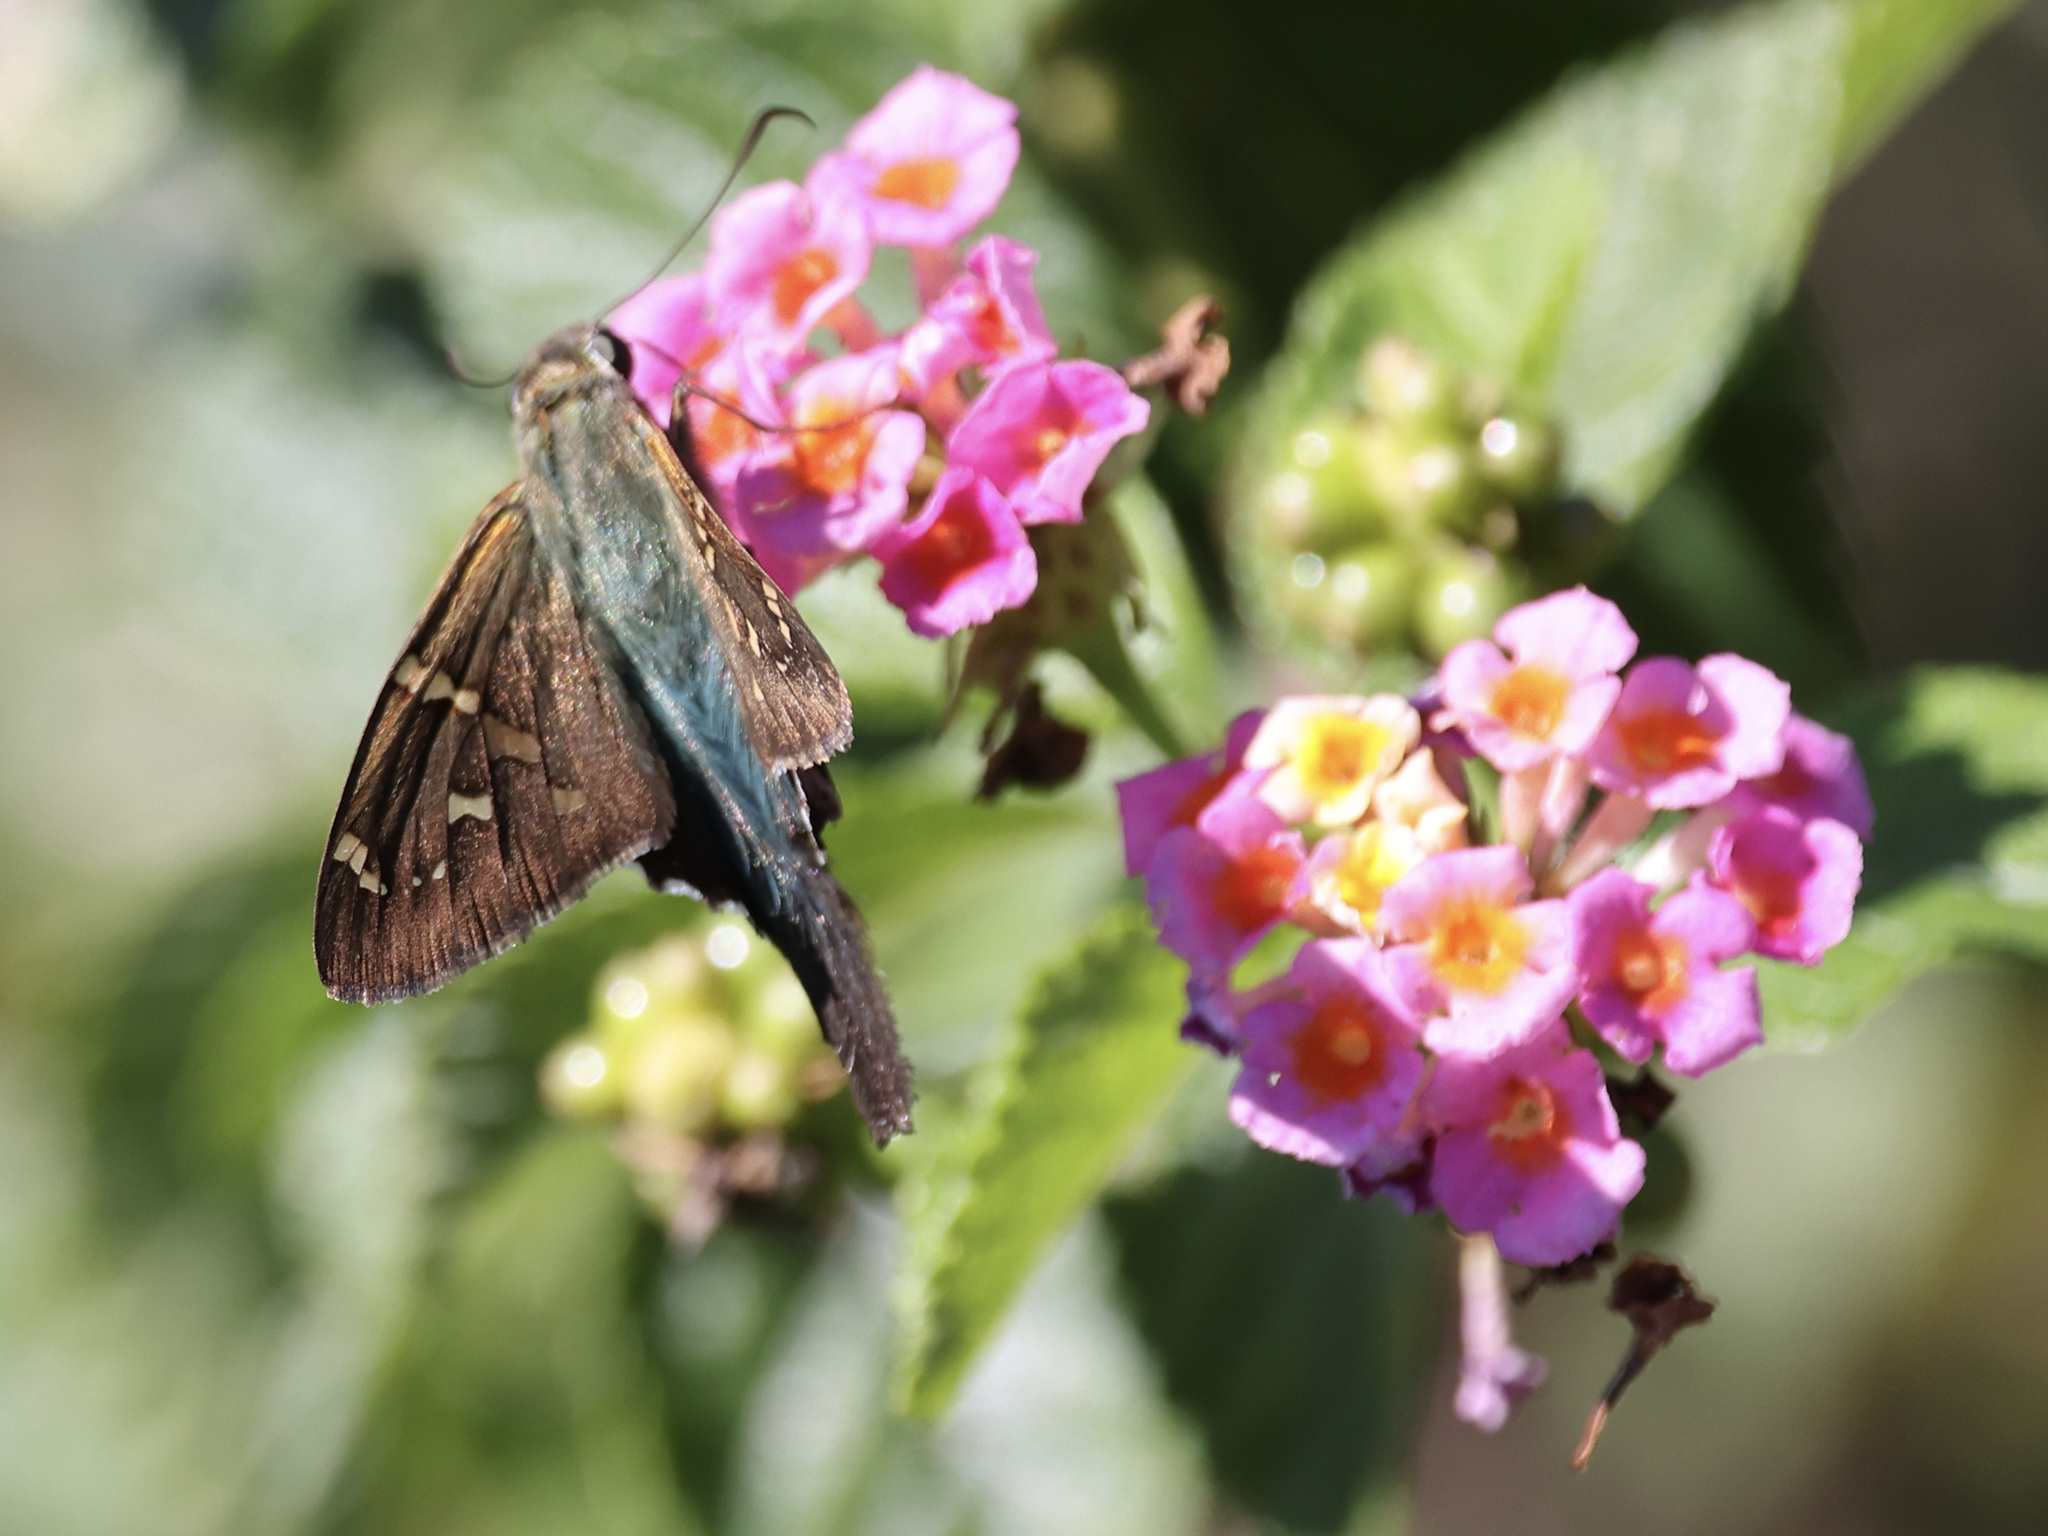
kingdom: Animalia
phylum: Arthropoda
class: Insecta
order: Lepidoptera
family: Hesperiidae
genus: Urbanus
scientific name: Urbanus proteus
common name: Long-tailed skipper
